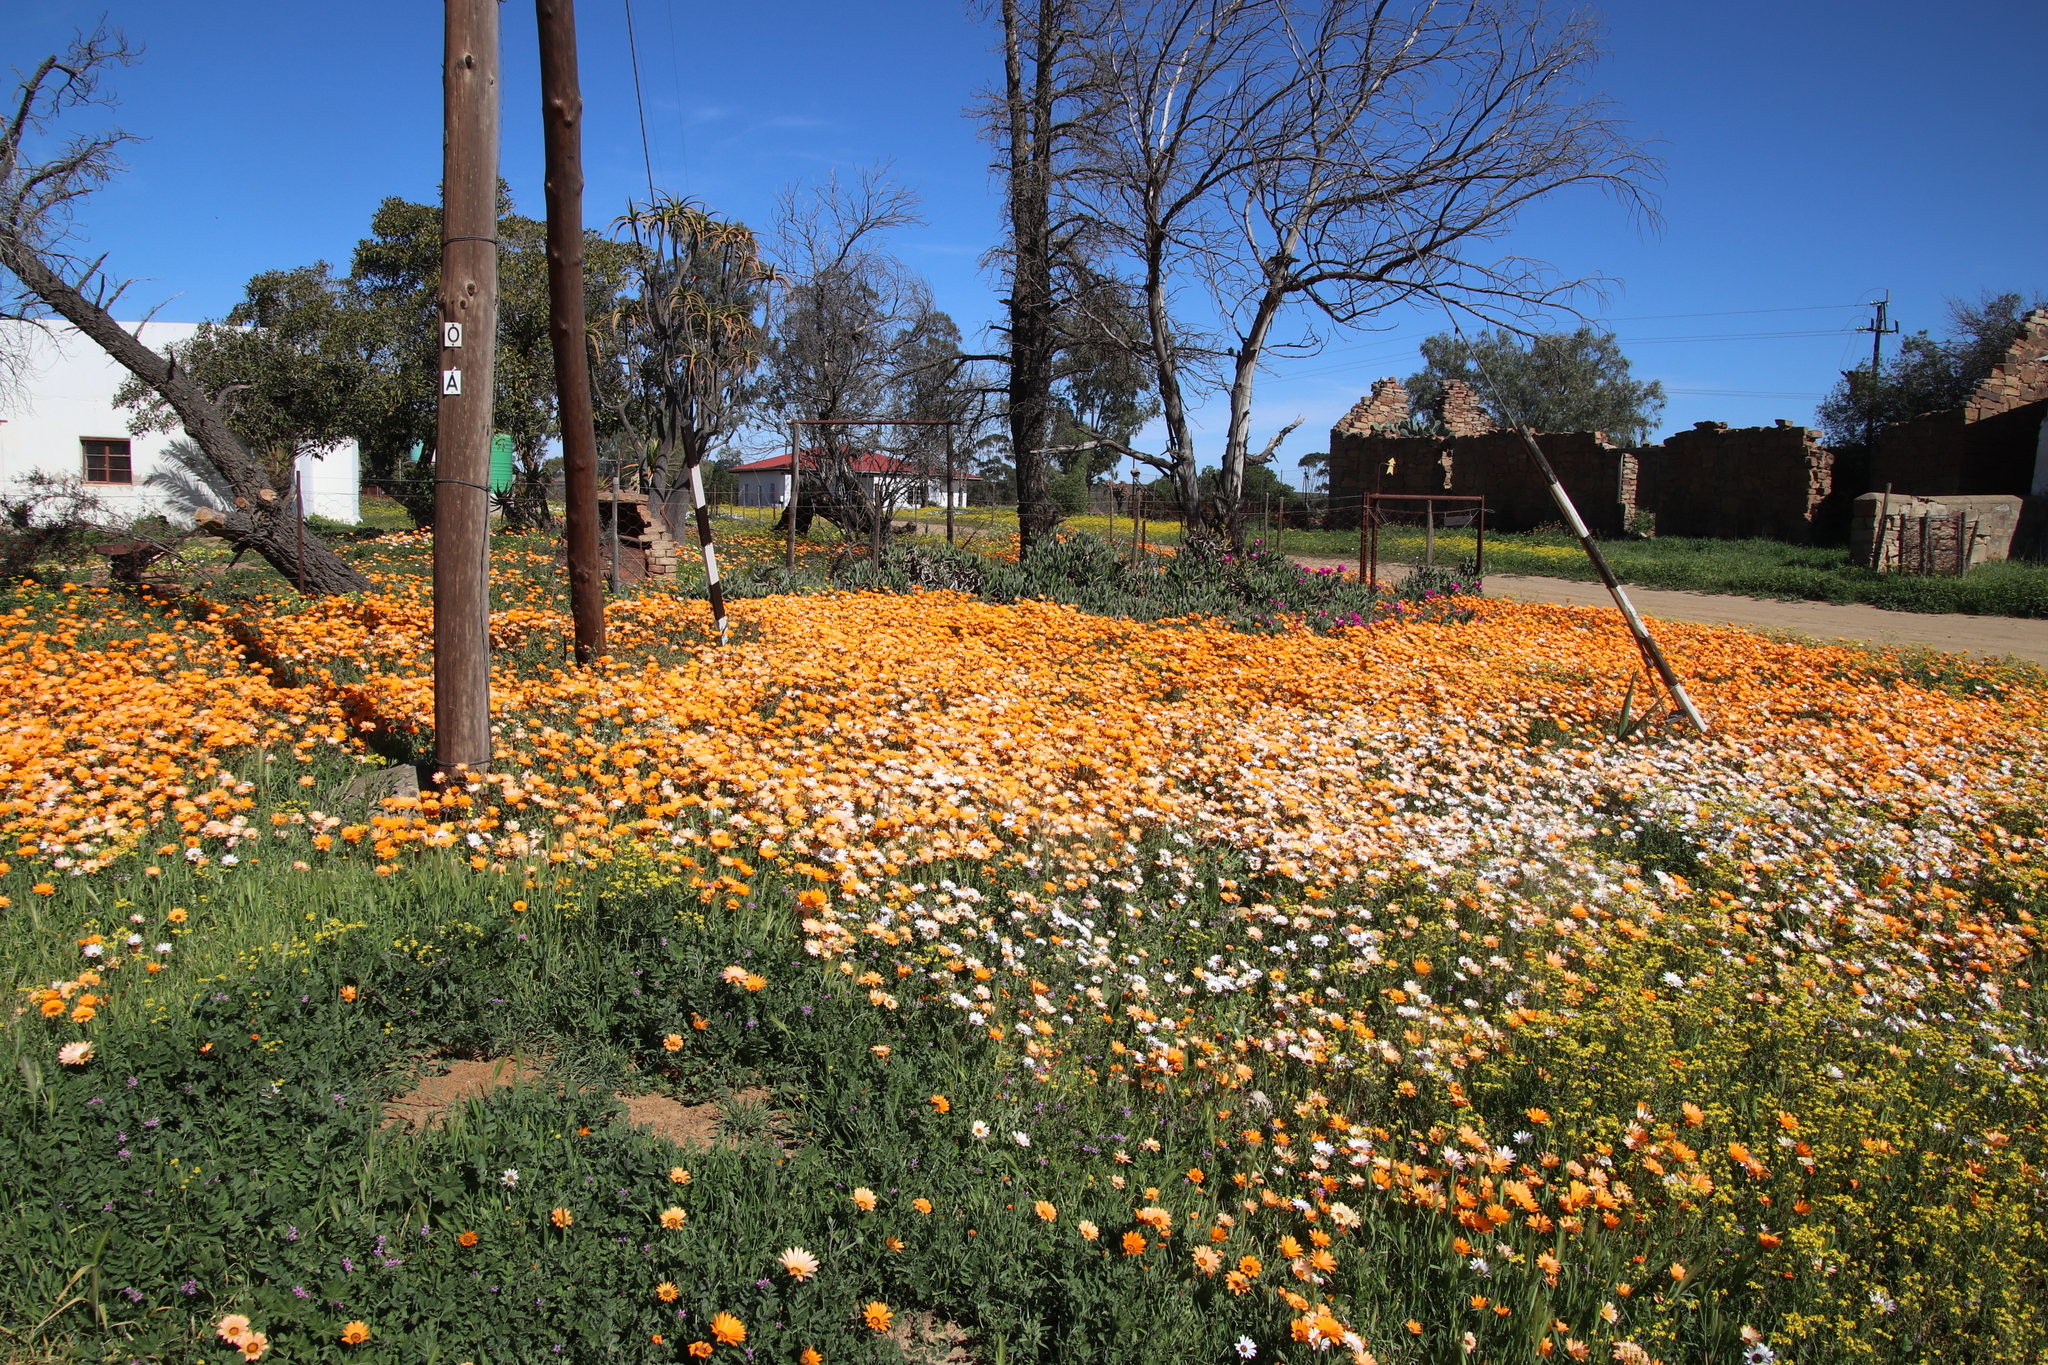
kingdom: Plantae
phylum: Tracheophyta
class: Magnoliopsida
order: Asterales
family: Asteraceae
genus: Dimorphotheca
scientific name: Dimorphotheca sinuata
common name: Glandular cape marigold
